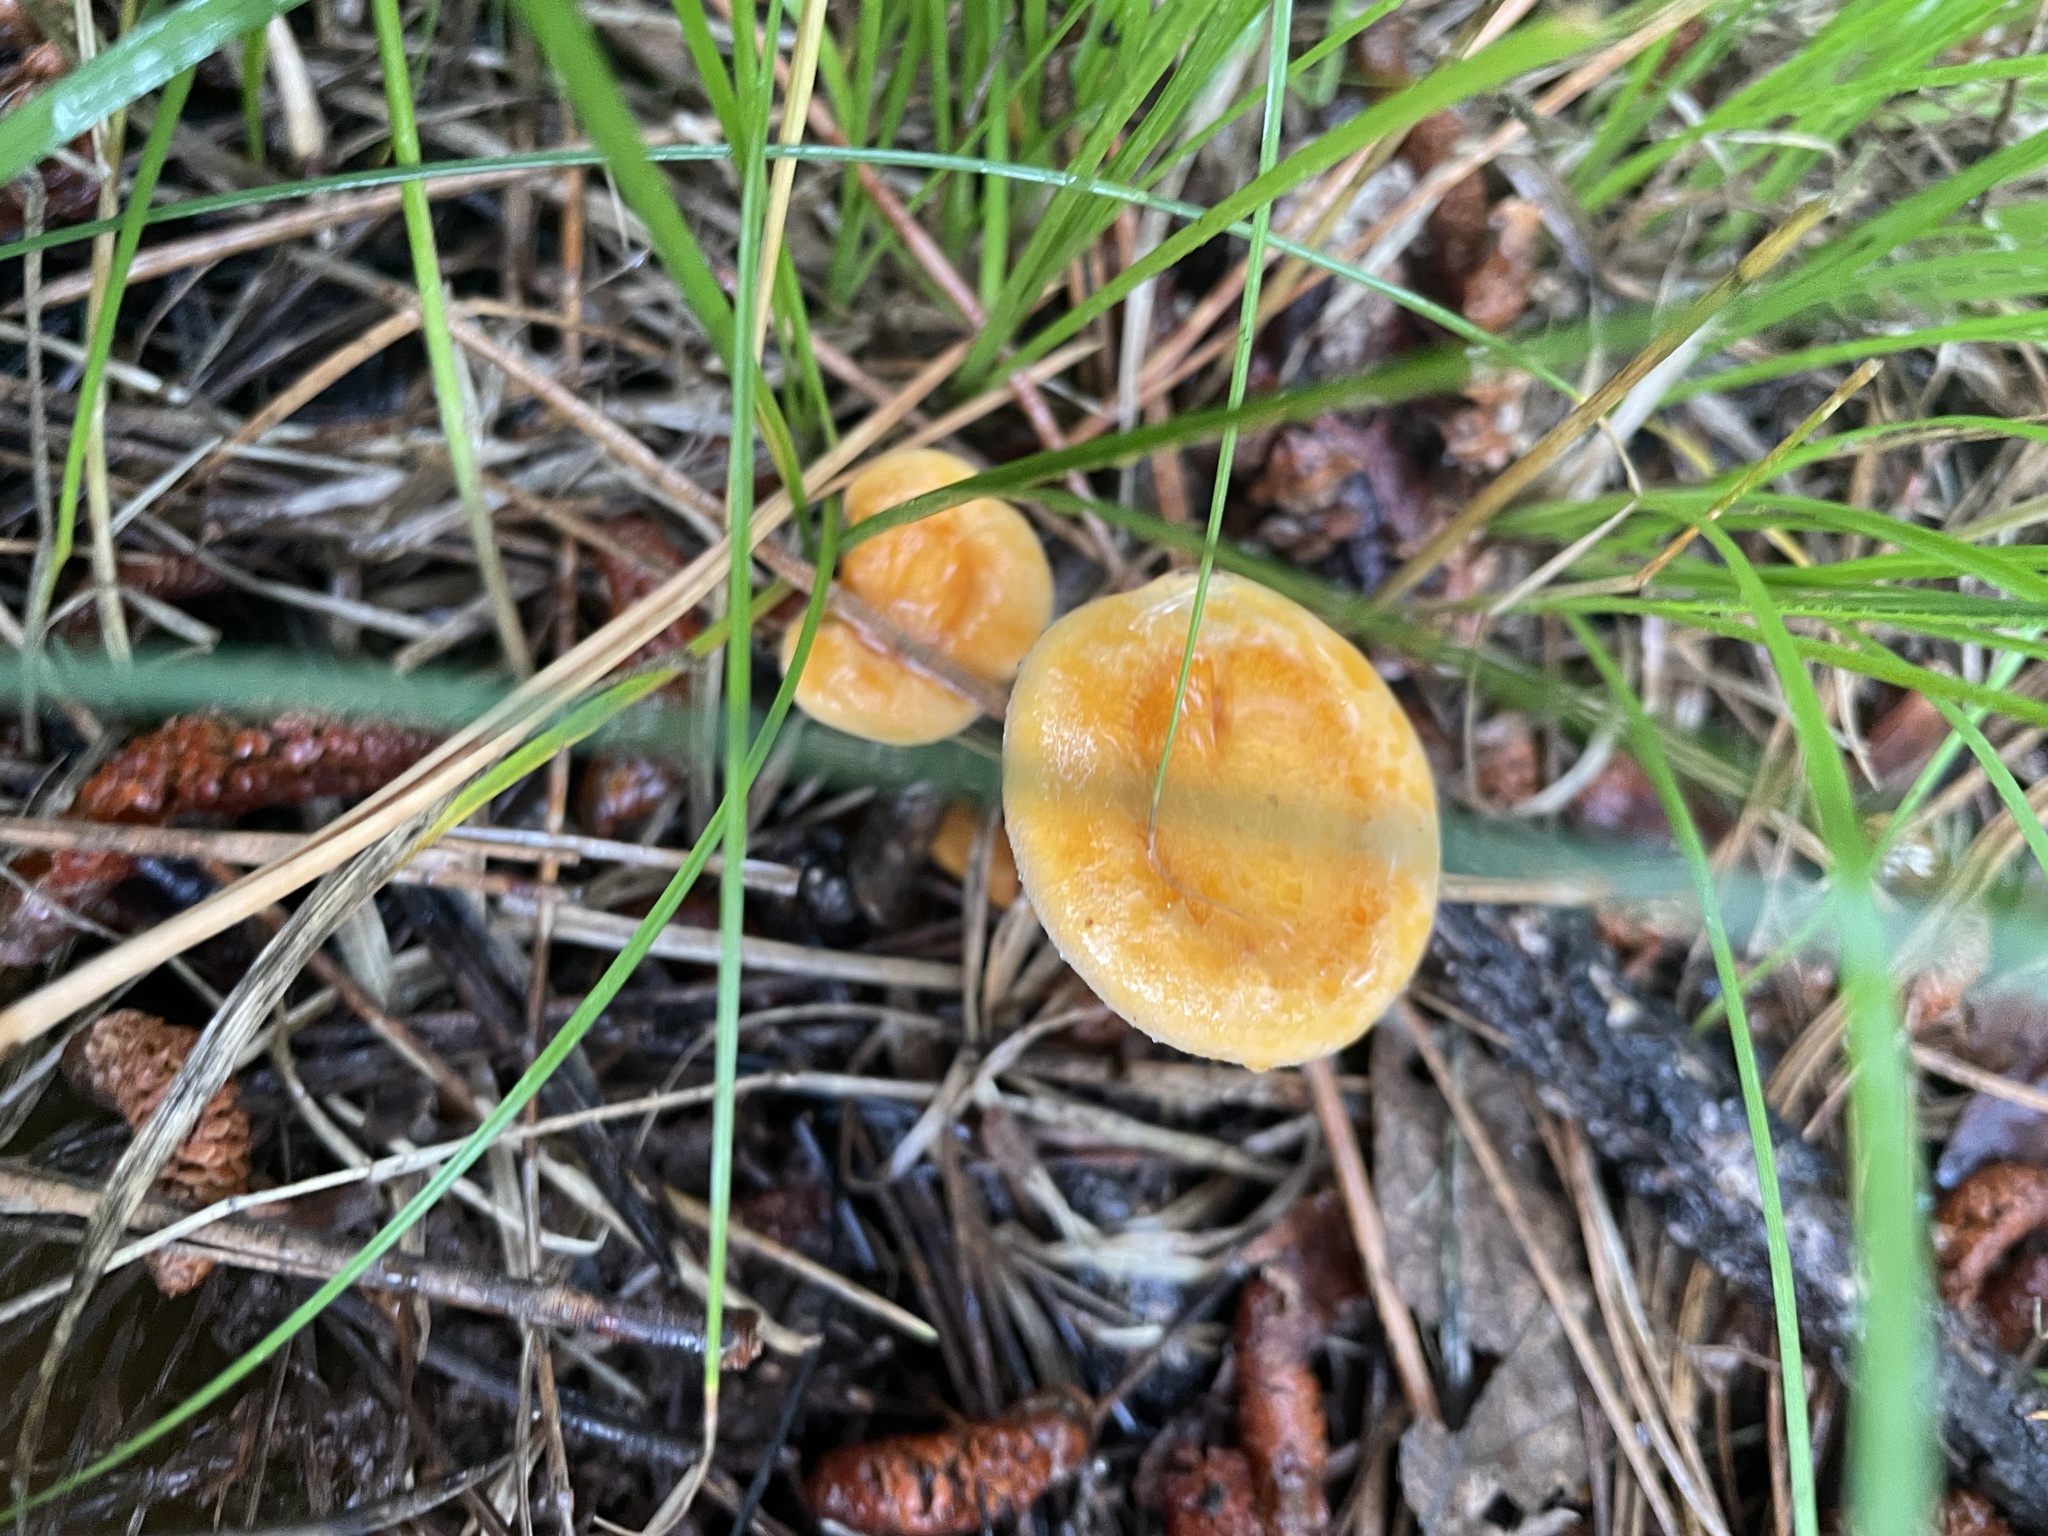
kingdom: Fungi
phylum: Basidiomycota
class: Agaricomycetes
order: Boletales
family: Hygrophoropsidaceae
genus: Hygrophoropsis
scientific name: Hygrophoropsis aurantiaca
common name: False chanterelle
